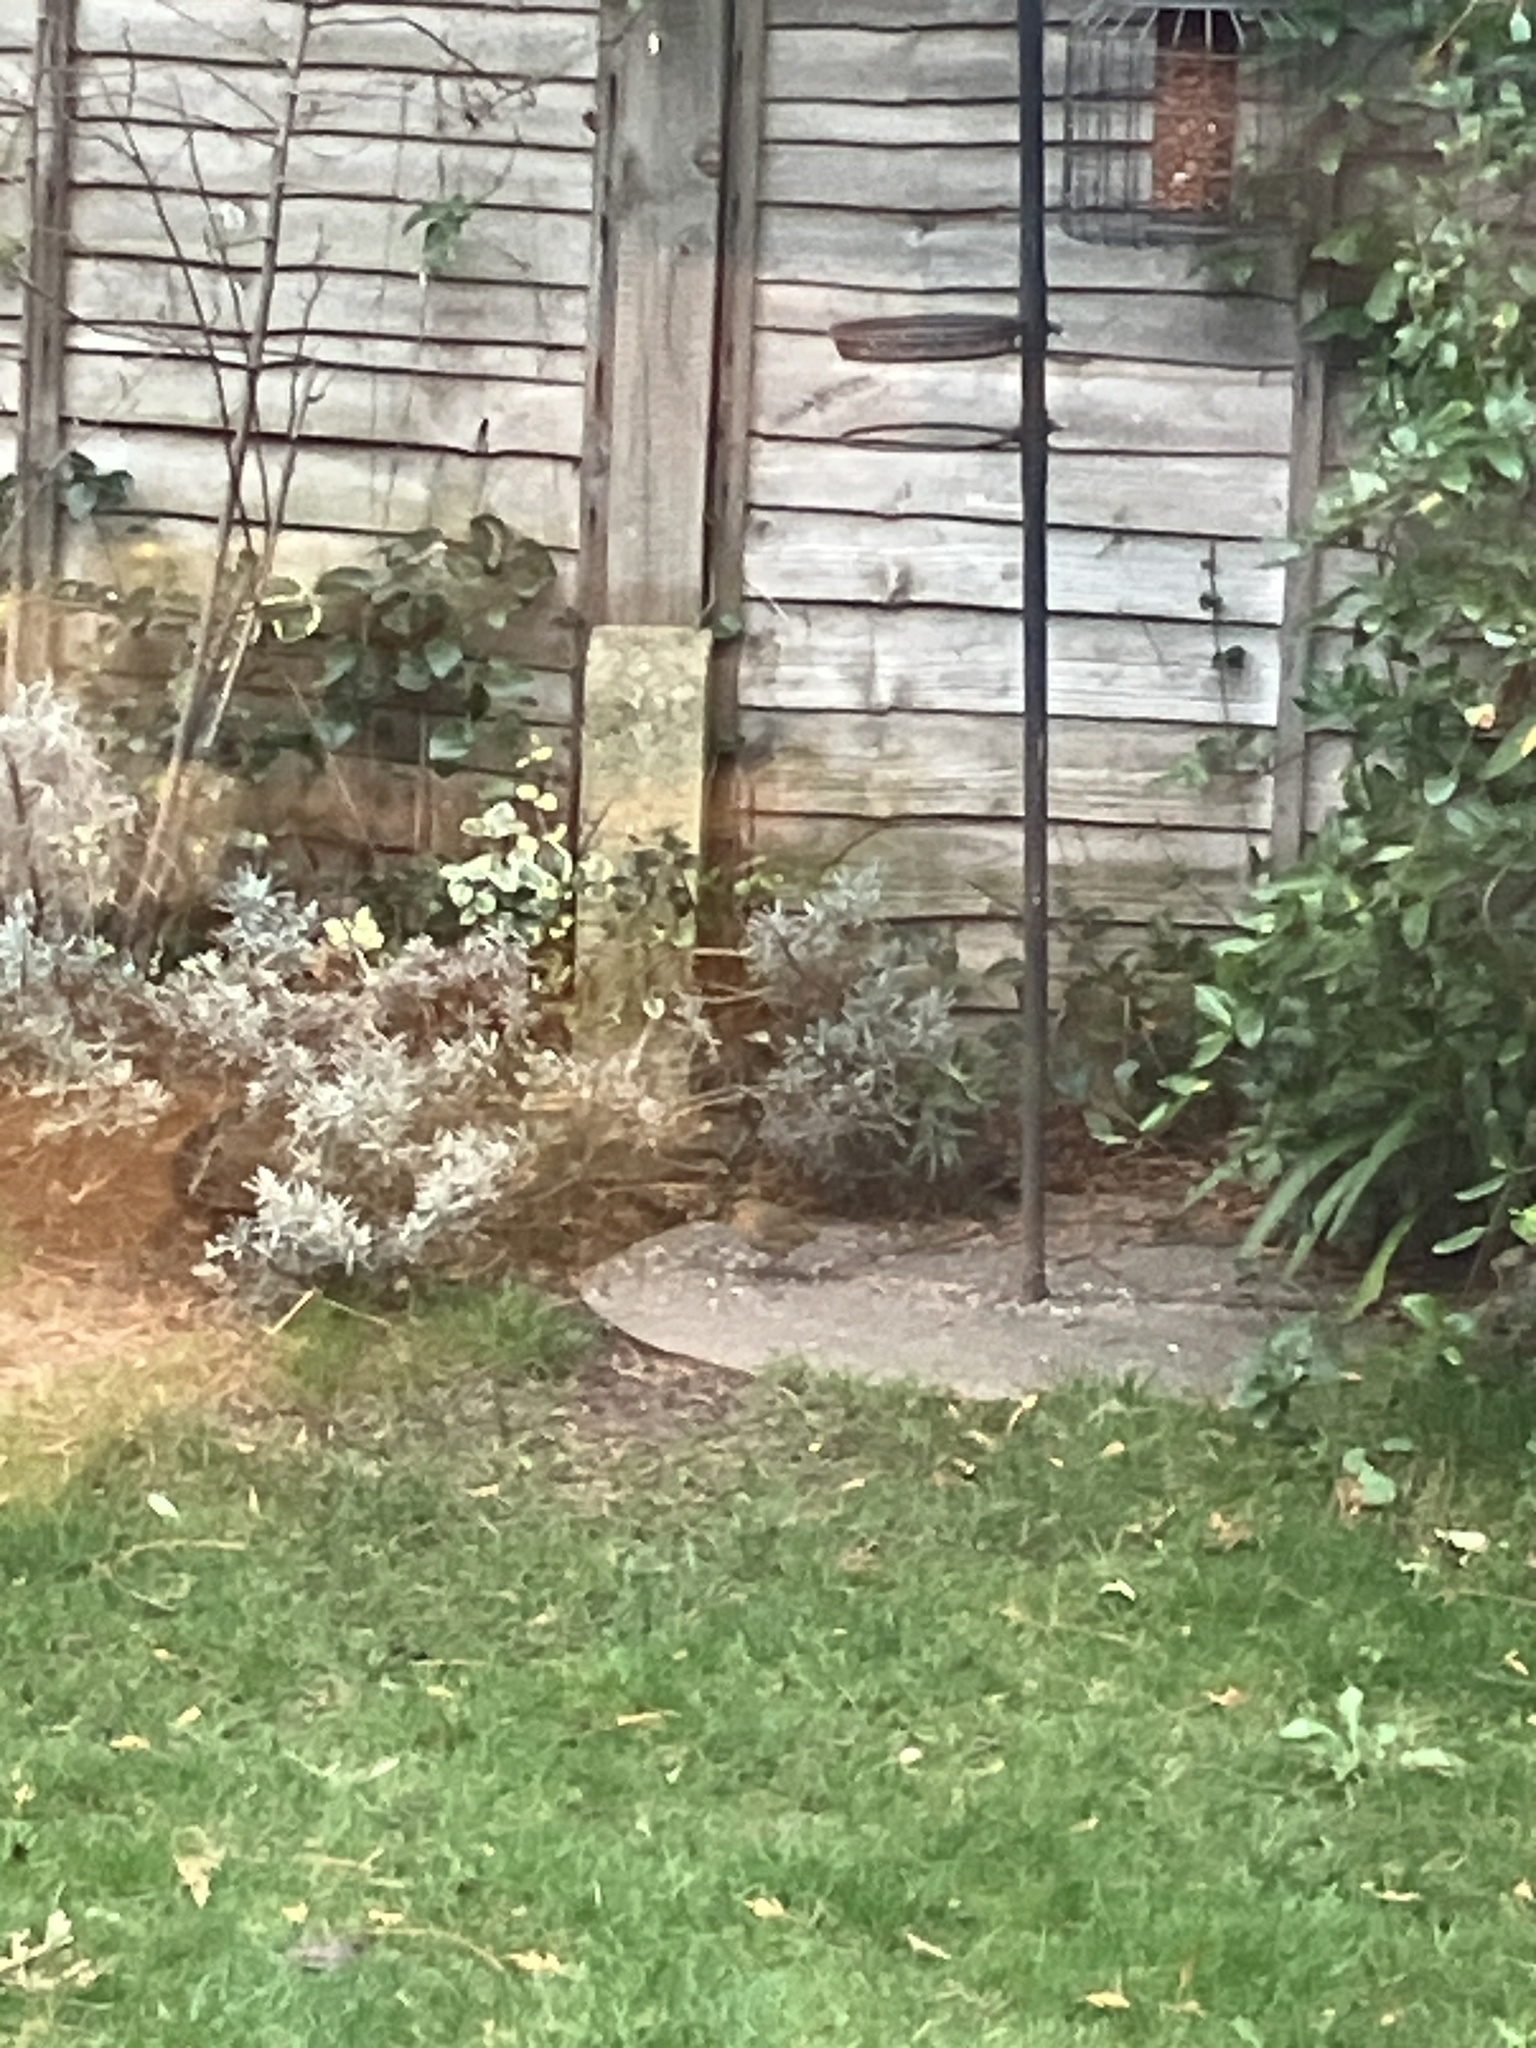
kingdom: Animalia
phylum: Chordata
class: Aves
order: Passeriformes
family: Muscicapidae
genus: Erithacus
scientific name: Erithacus rubecula
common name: European robin
